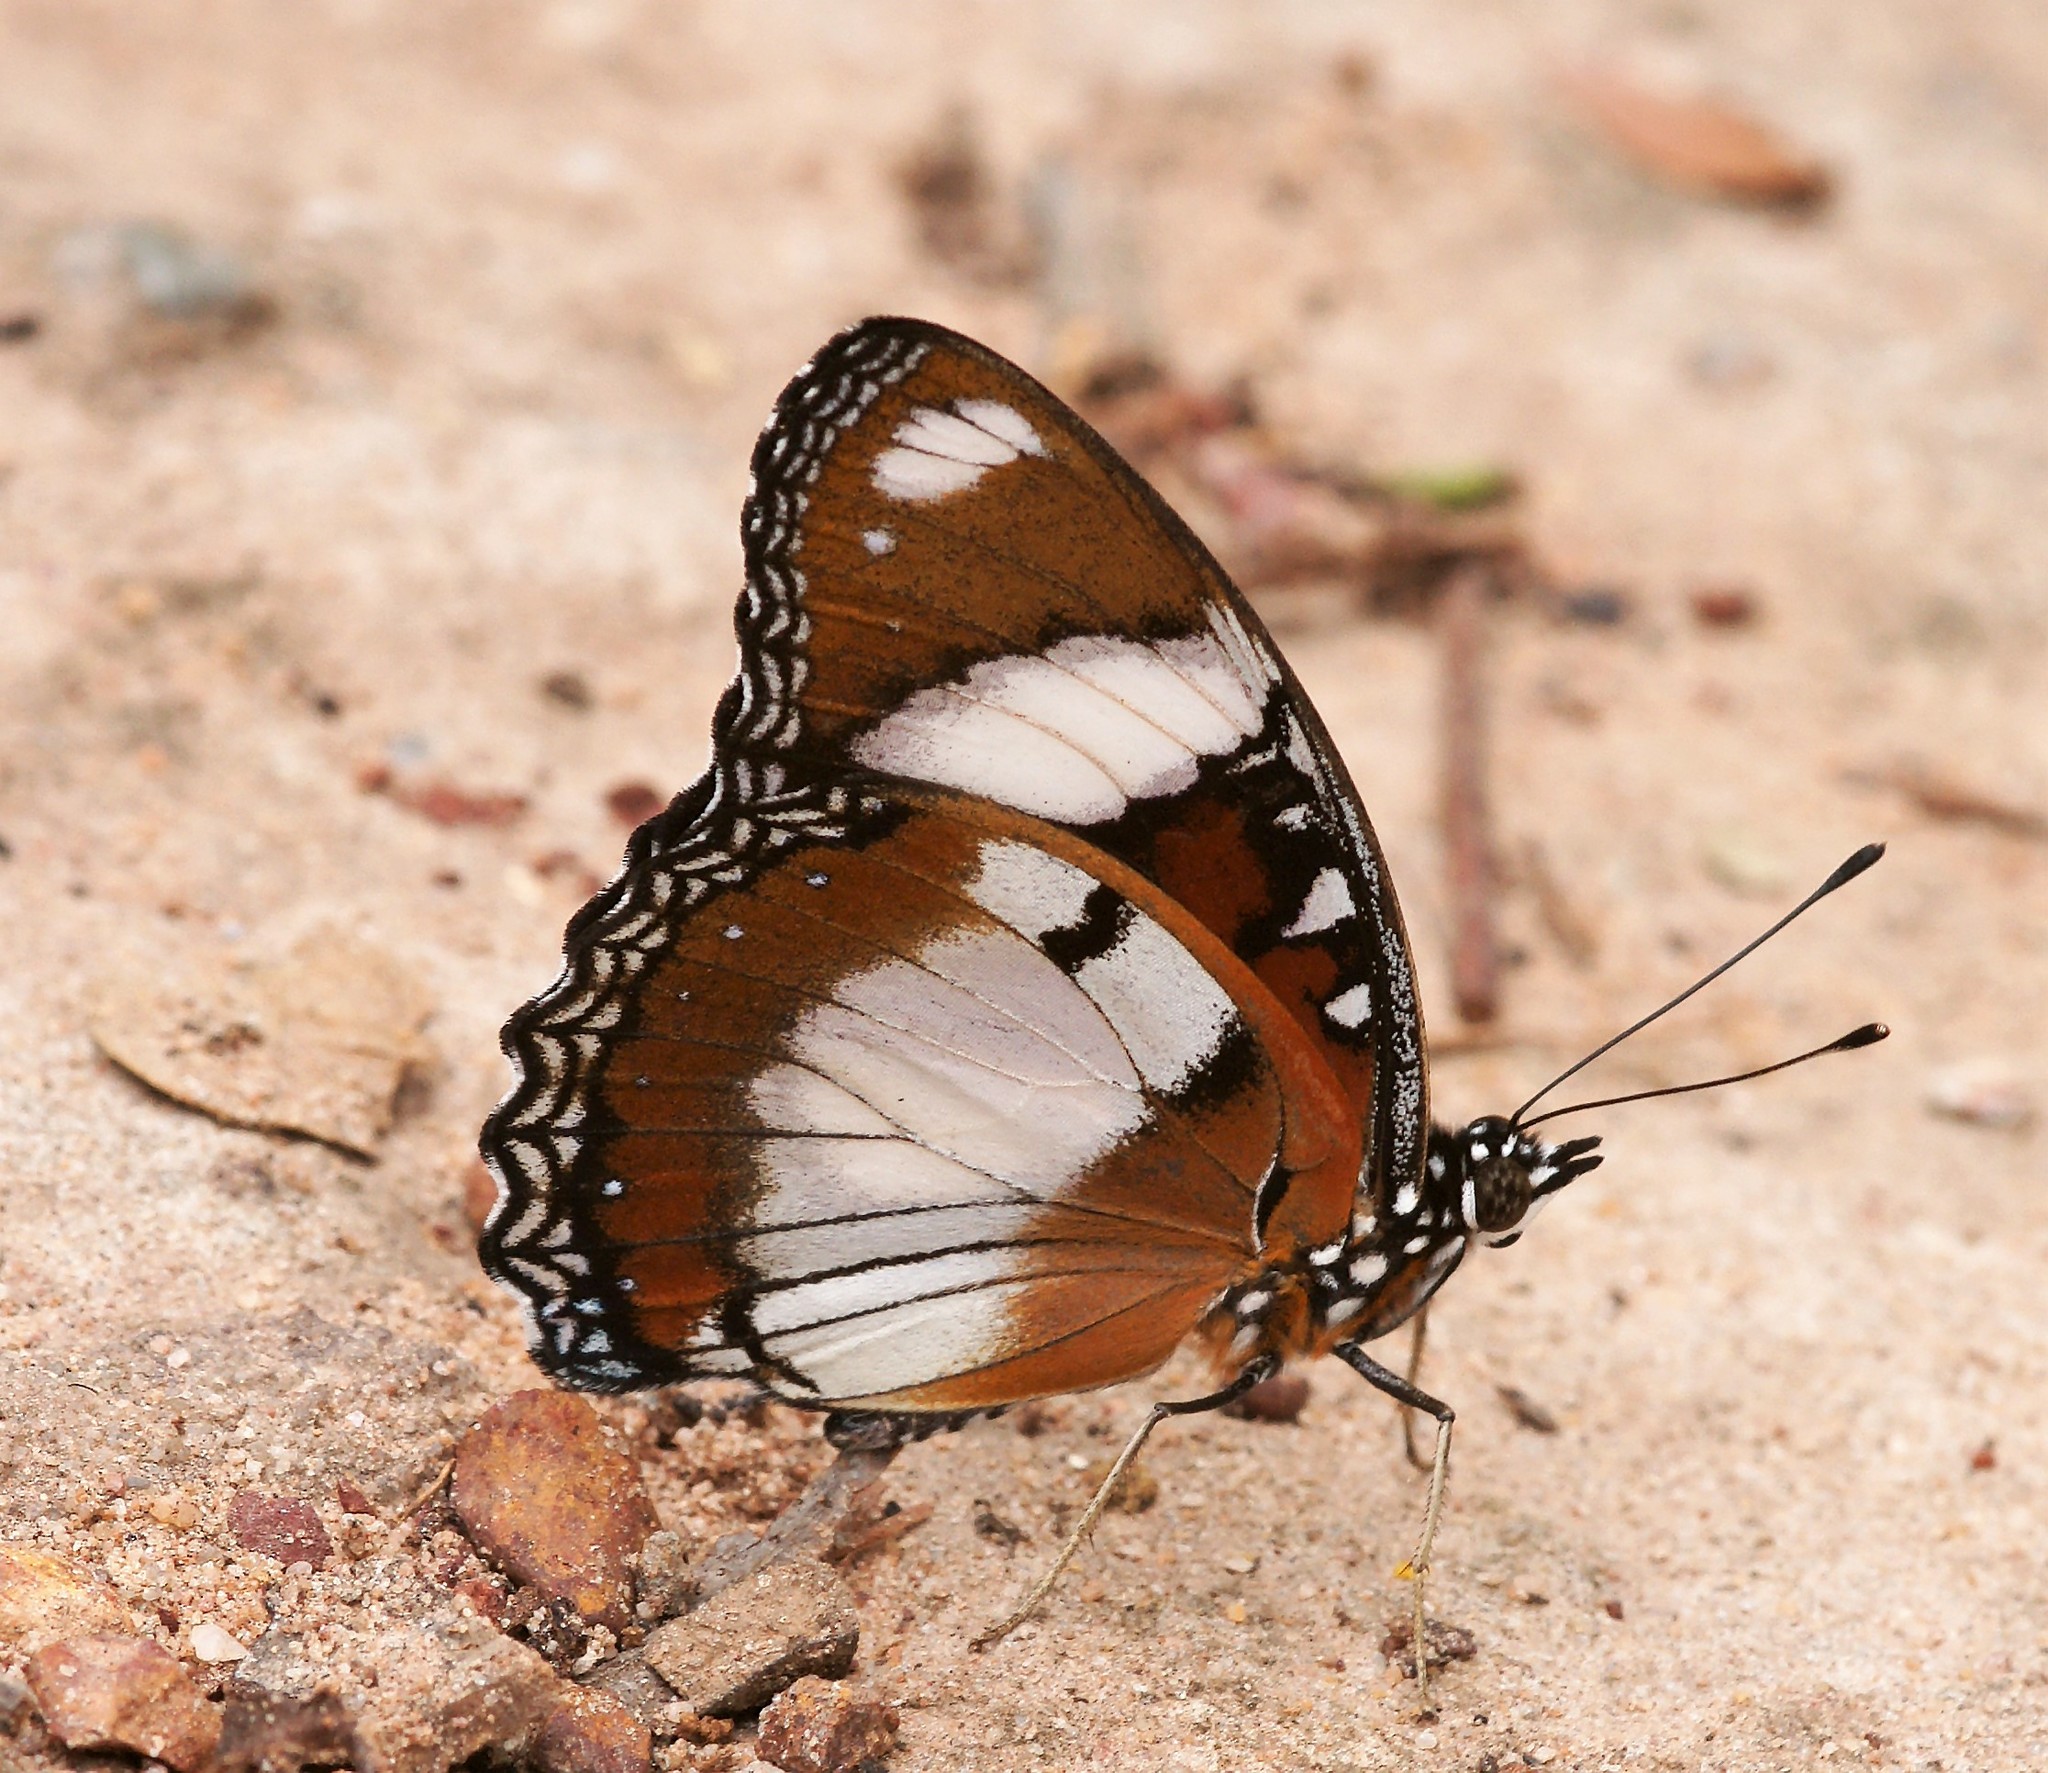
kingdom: Animalia
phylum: Arthropoda
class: Insecta
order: Lepidoptera
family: Nymphalidae
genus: Hypolimnas
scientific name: Hypolimnas misippus
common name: False plain tiger
